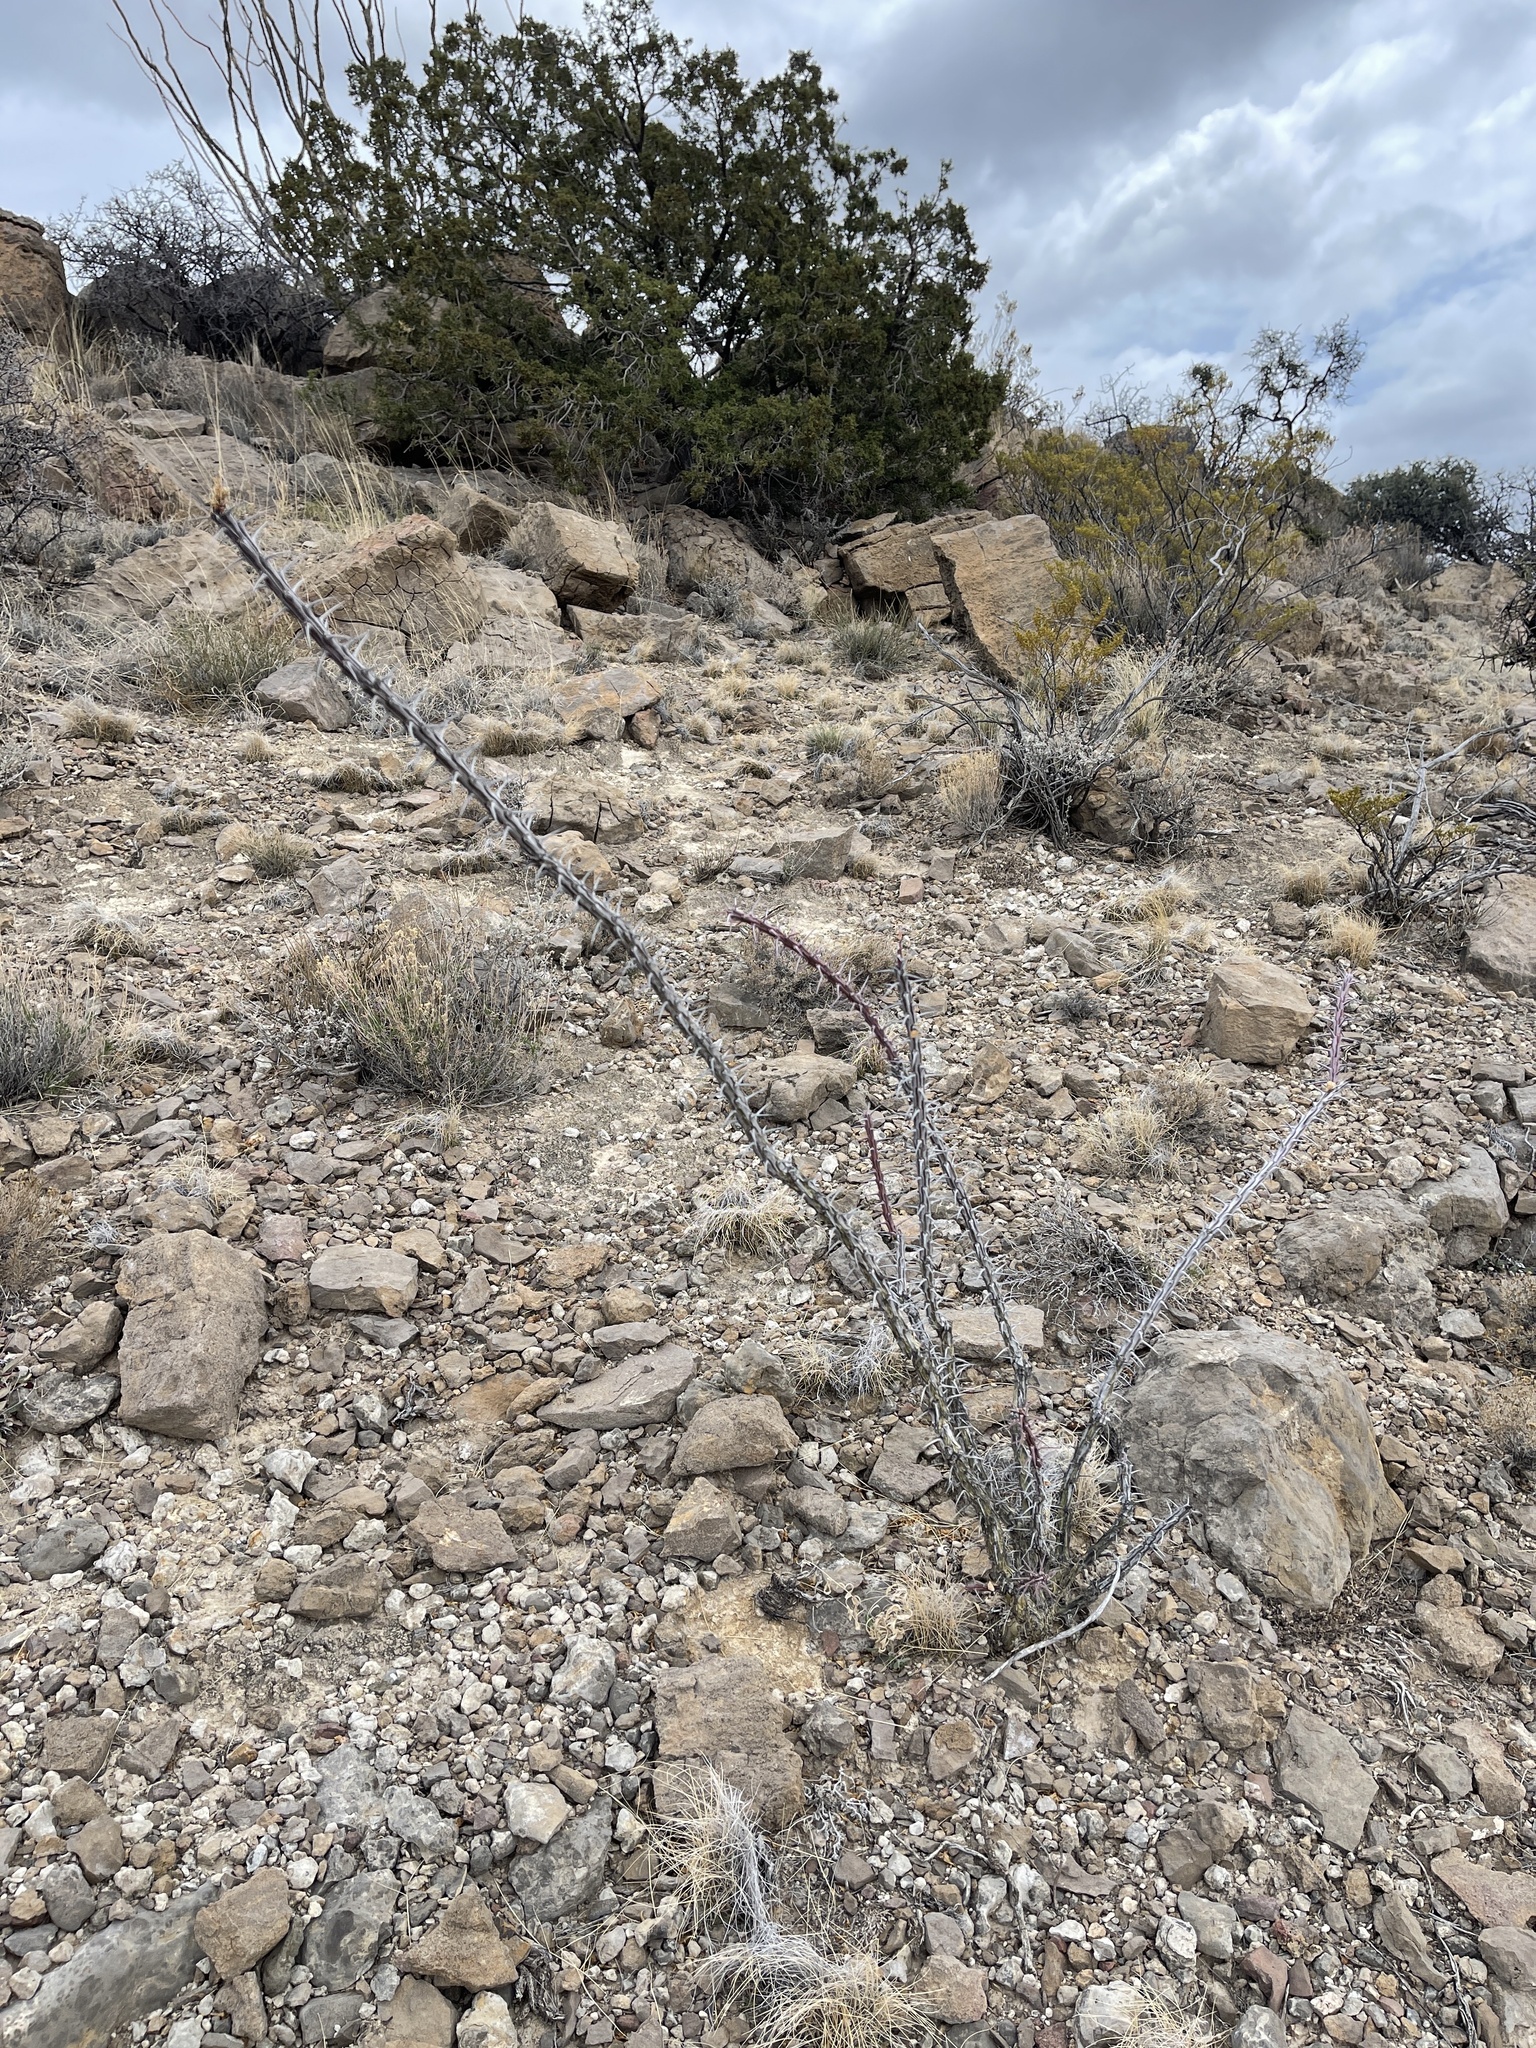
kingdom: Plantae
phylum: Tracheophyta
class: Magnoliopsida
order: Ericales
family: Fouquieriaceae
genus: Fouquieria
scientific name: Fouquieria splendens
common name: Vine-cactus
